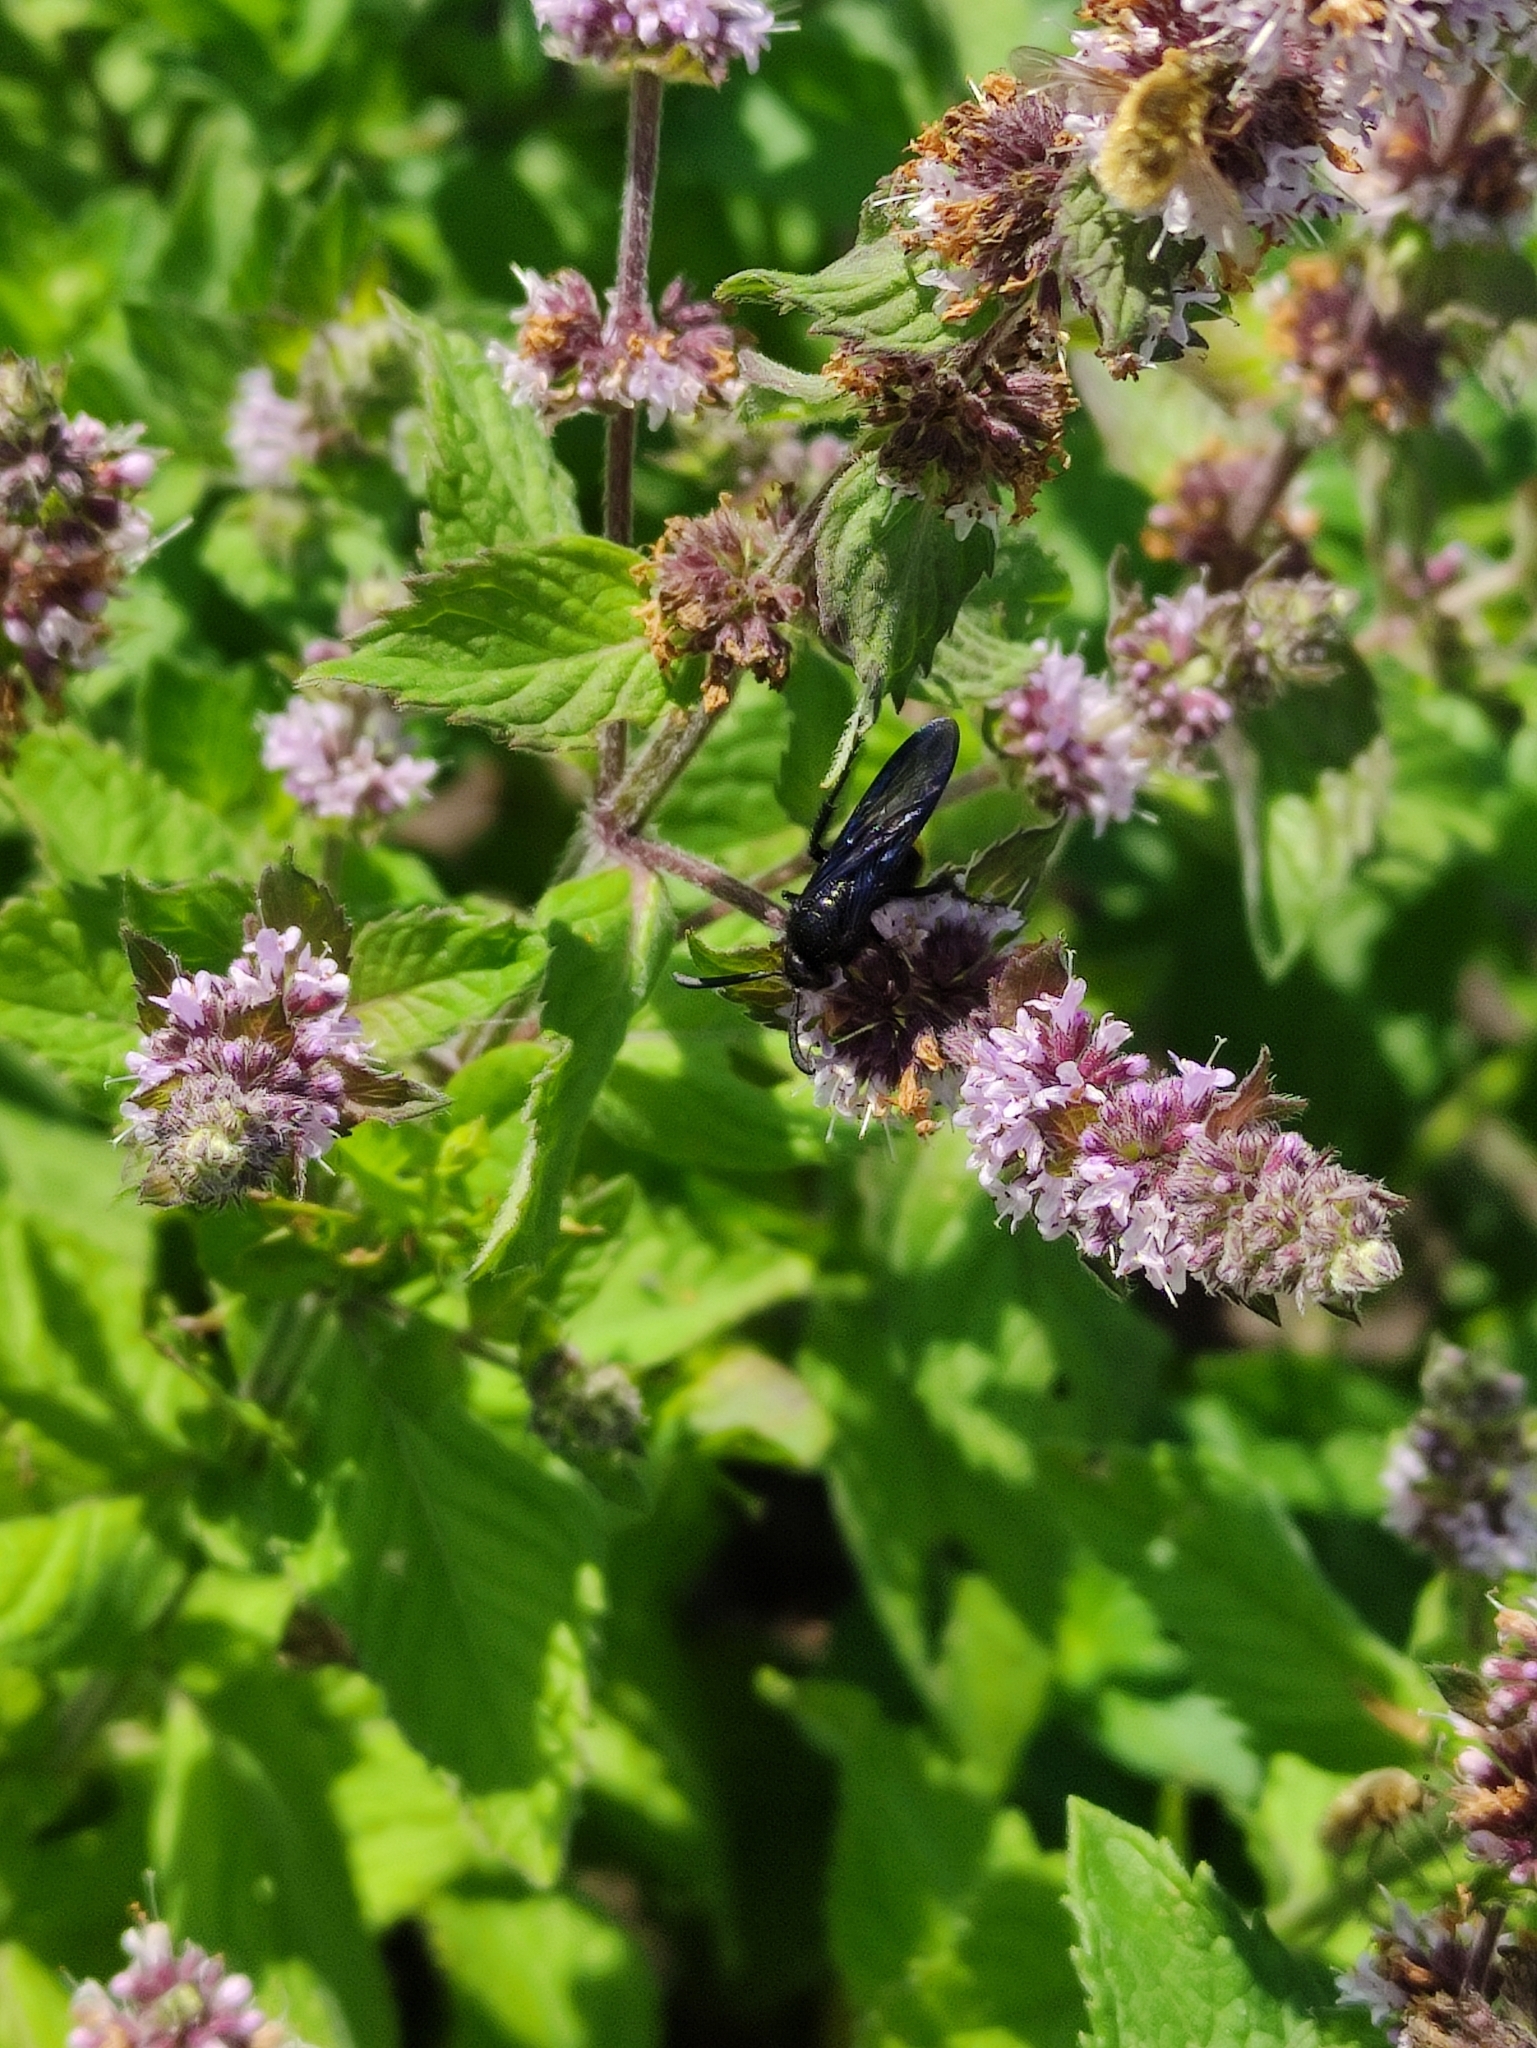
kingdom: Animalia
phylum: Arthropoda
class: Insecta
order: Hymenoptera
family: Scoliidae
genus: Scolia
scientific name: Scolia hirta
